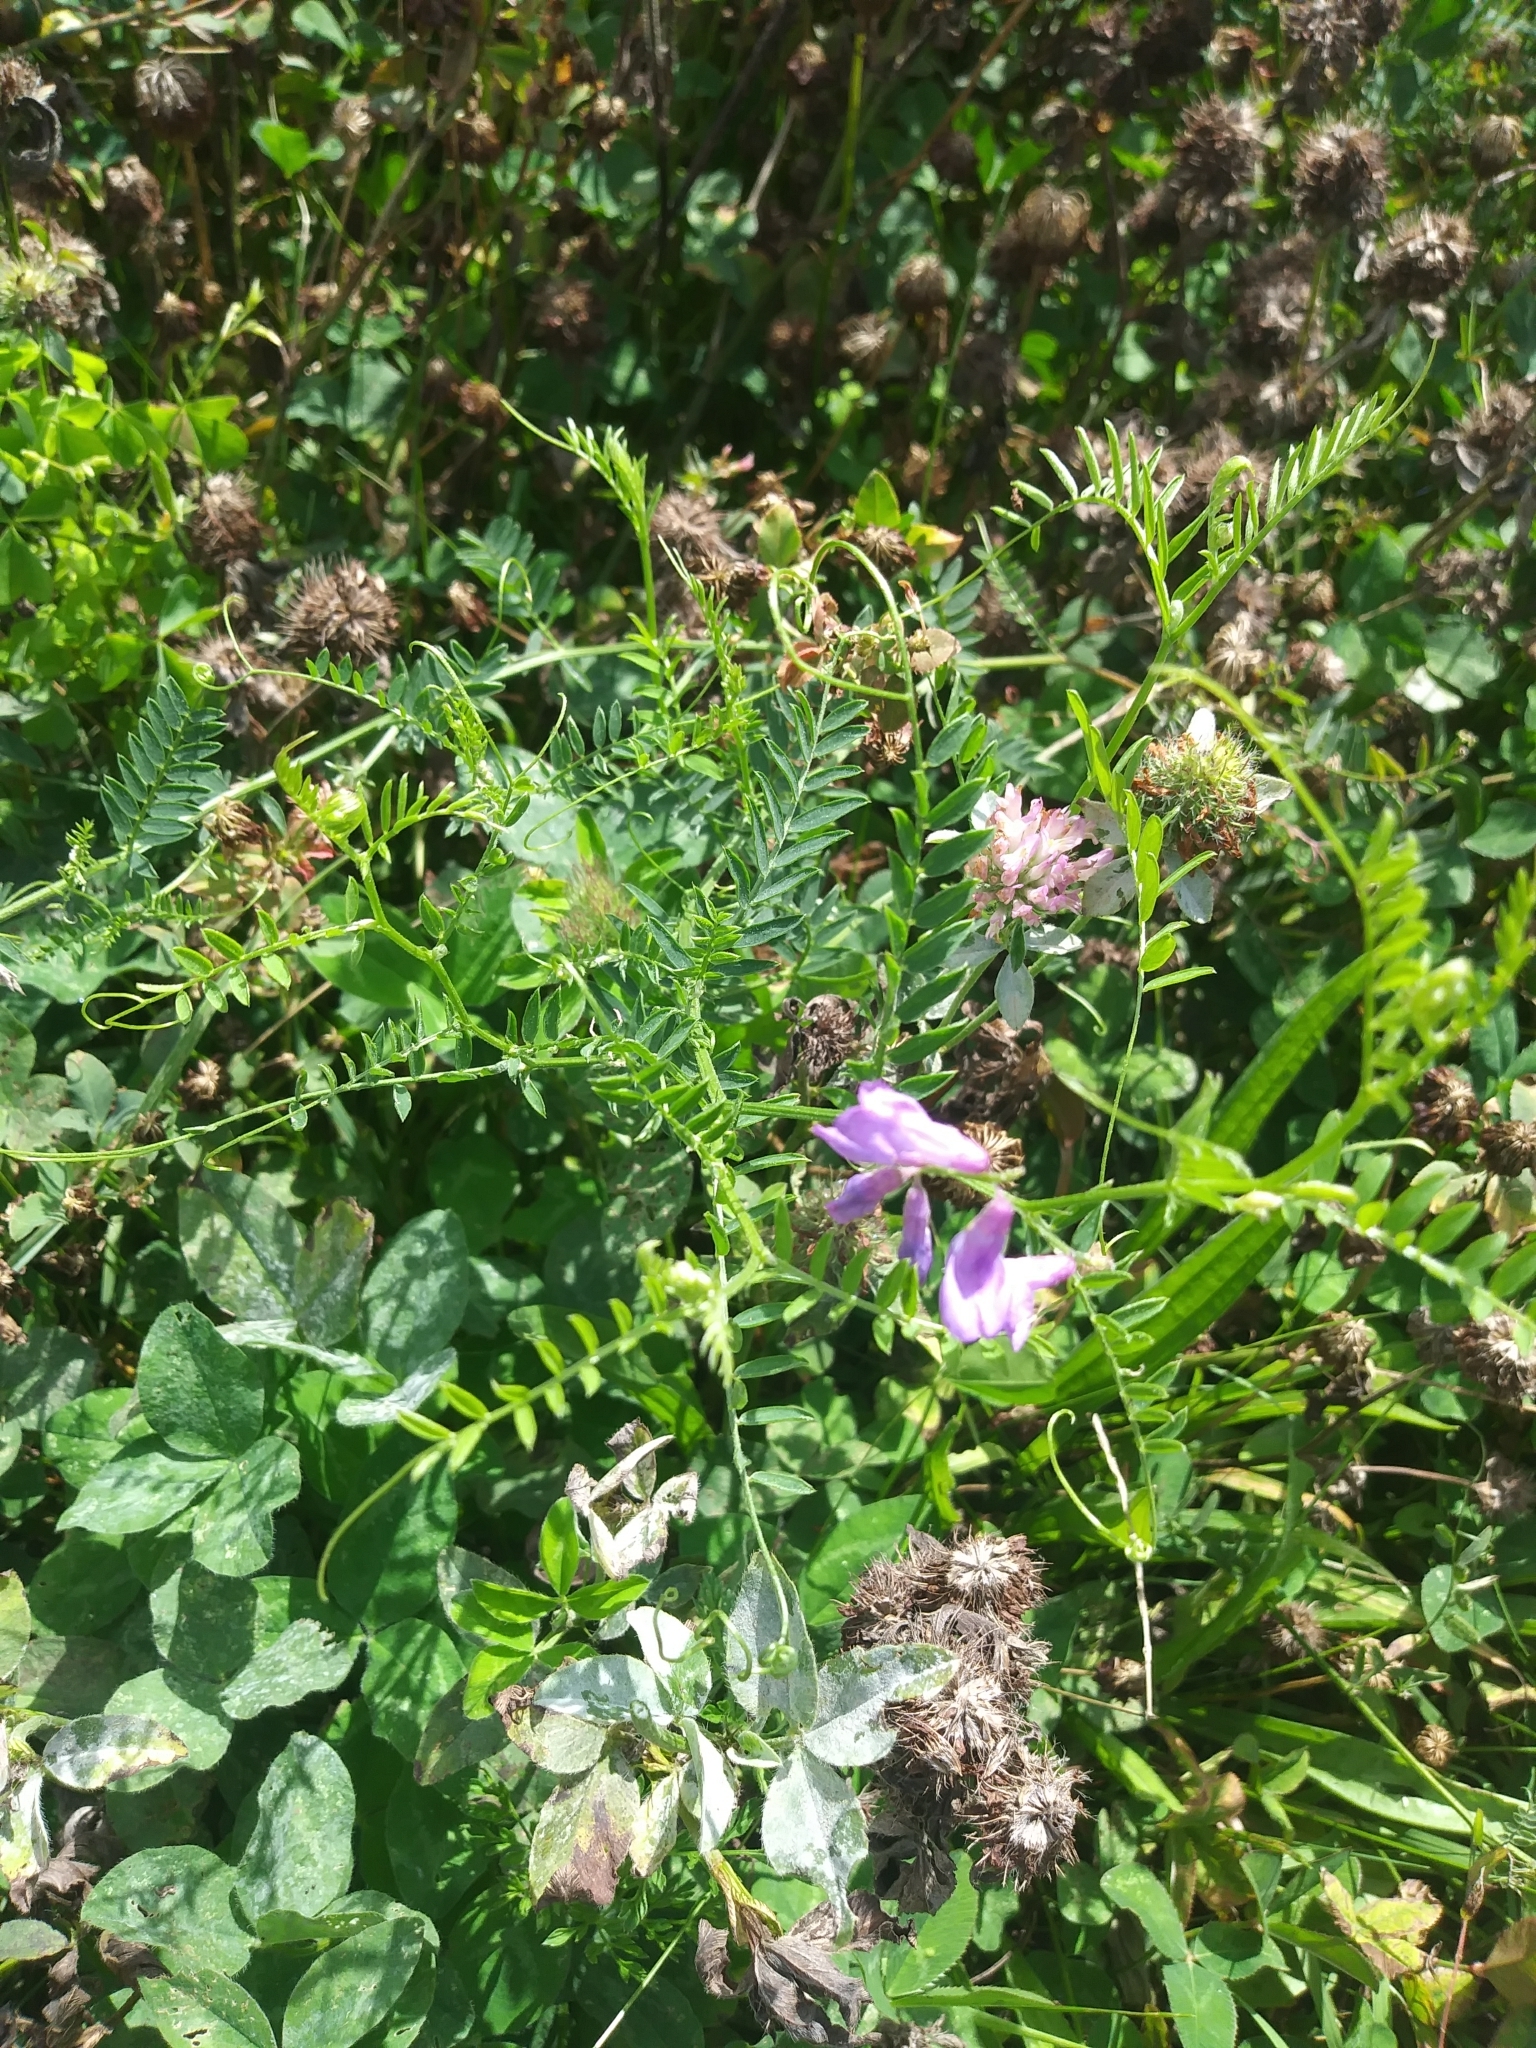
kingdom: Plantae
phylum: Tracheophyta
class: Magnoliopsida
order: Fabales
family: Fabaceae
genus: Vicia
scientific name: Vicia cracca
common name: Bird vetch
